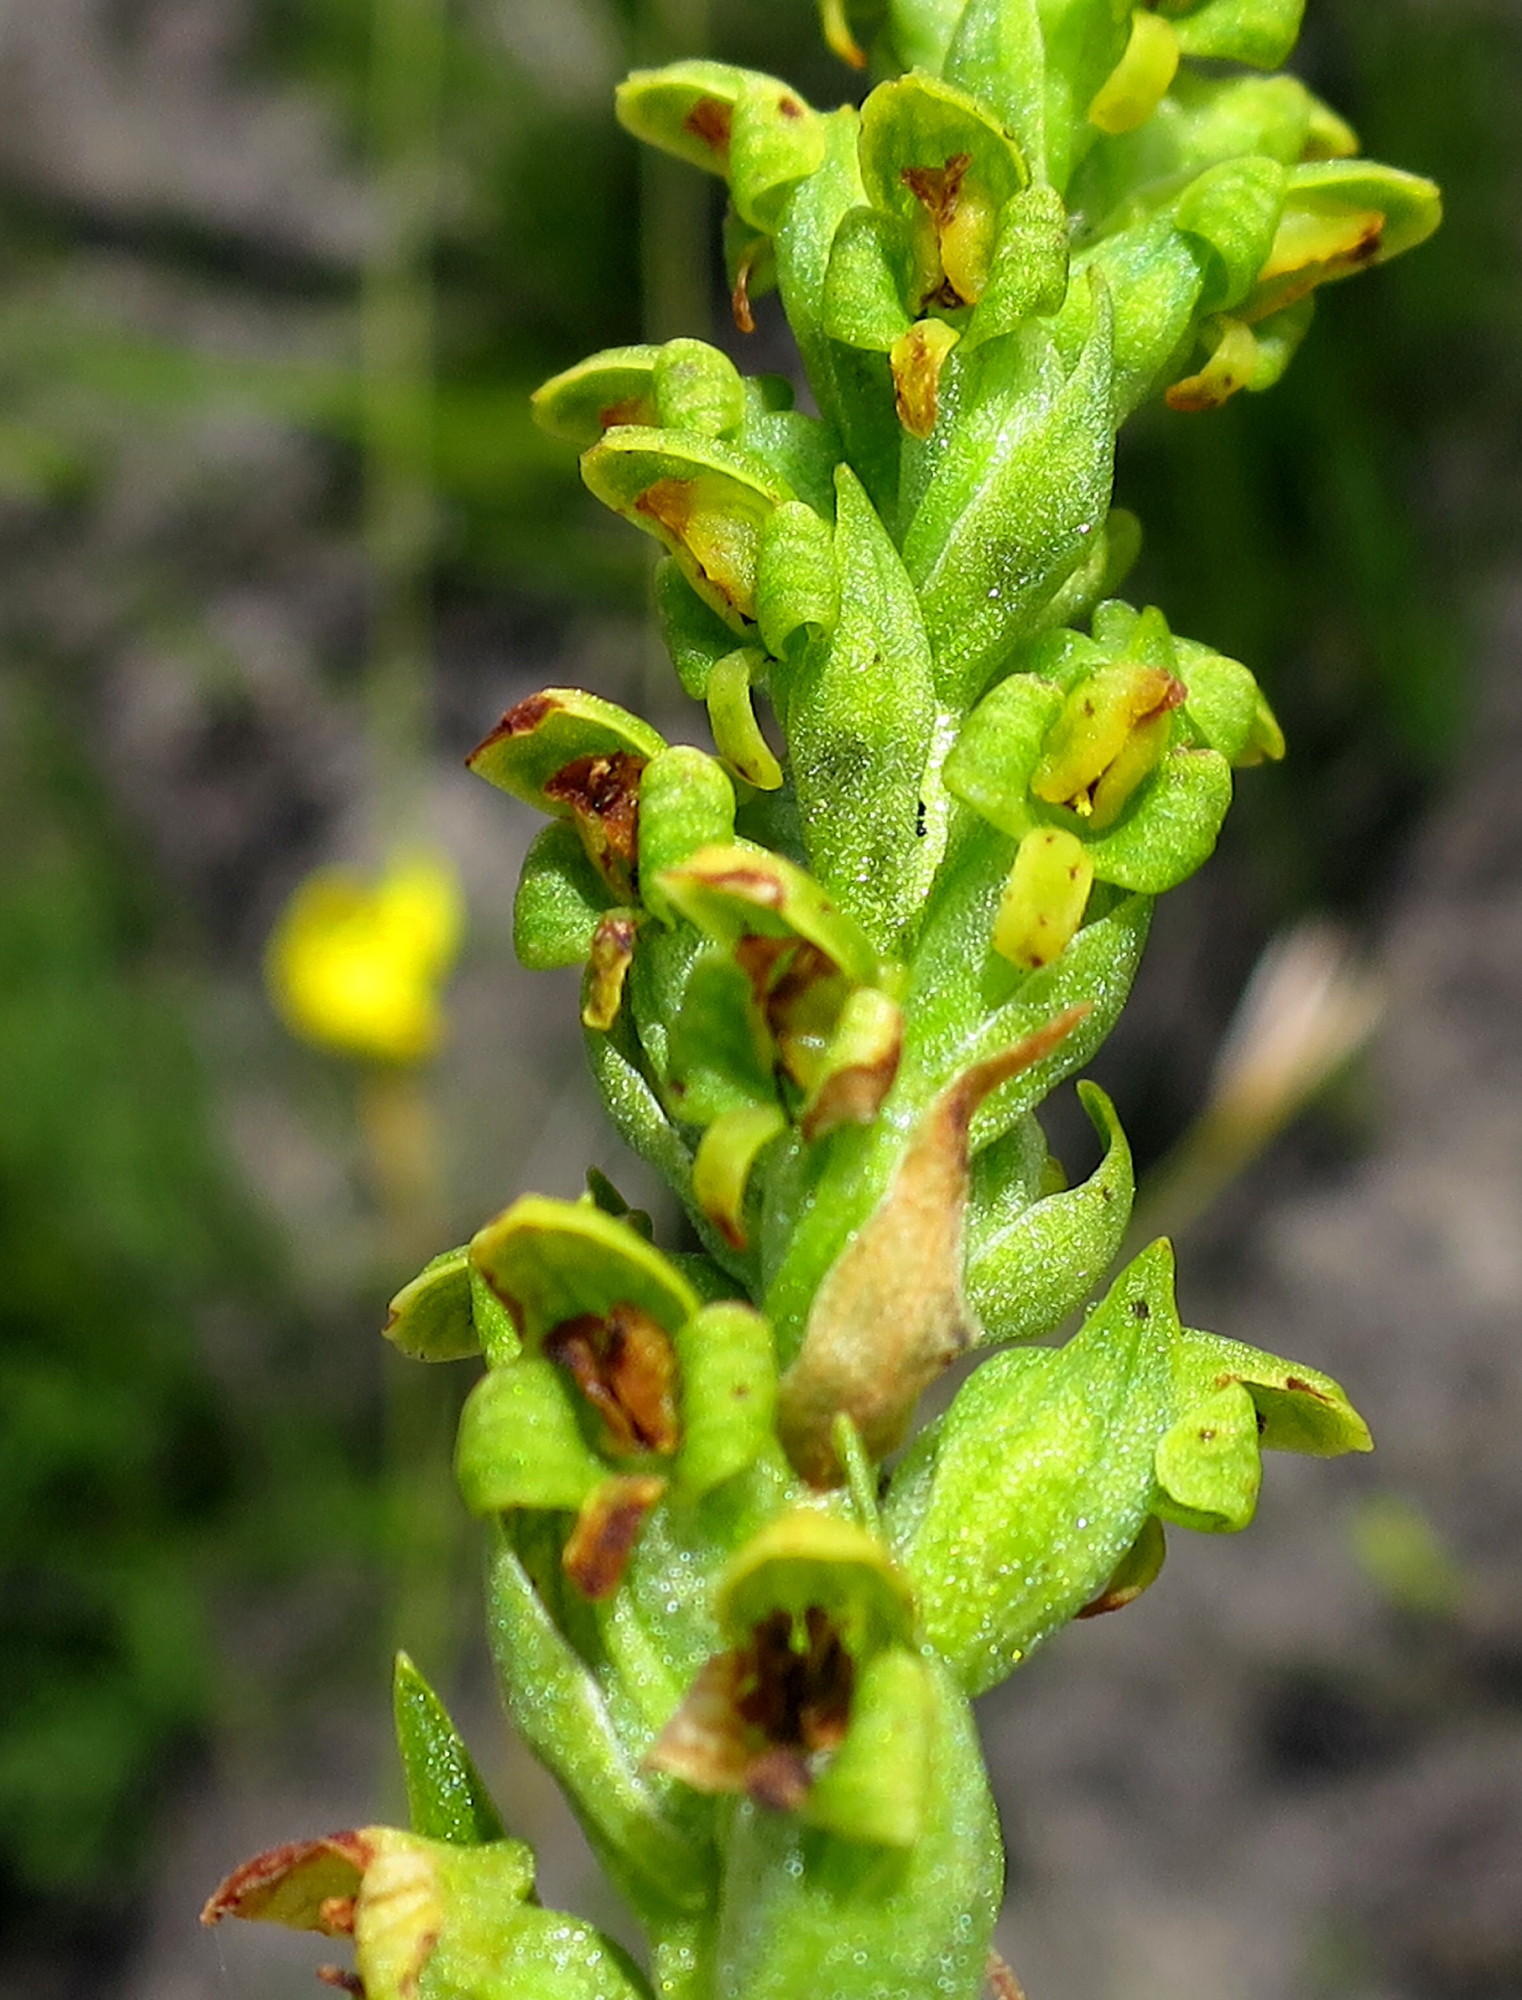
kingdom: Plantae
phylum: Tracheophyta
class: Liliopsida
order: Asparagales
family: Orchidaceae
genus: Disa
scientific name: Disa cylindrica
